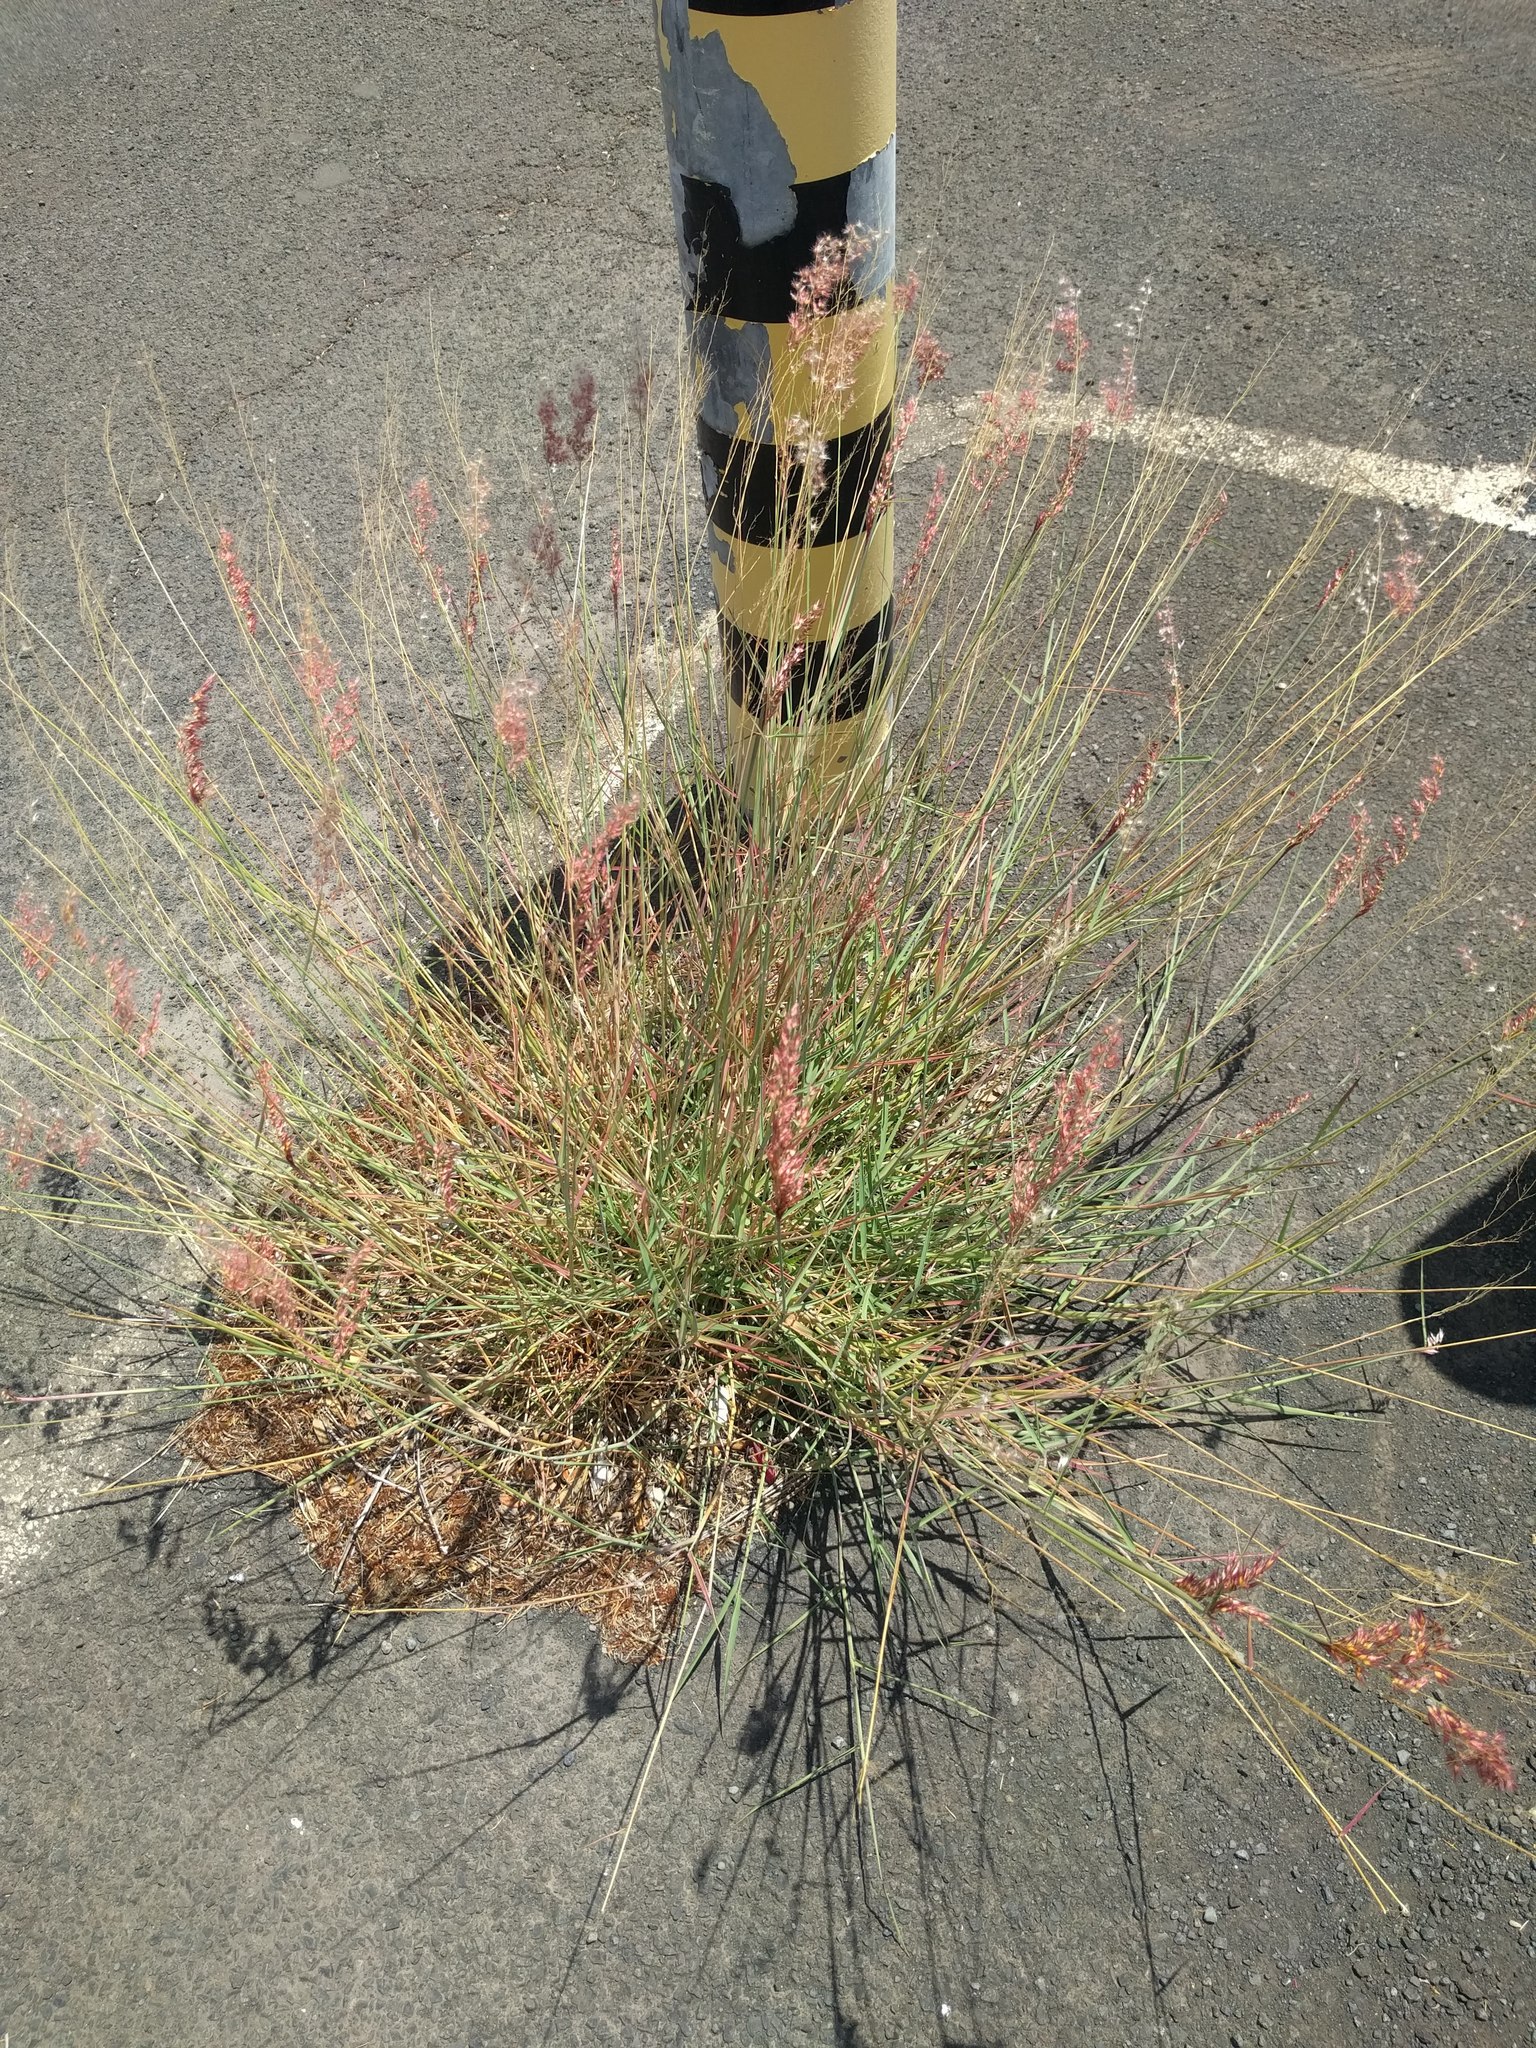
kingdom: Plantae
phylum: Tracheophyta
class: Liliopsida
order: Poales
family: Poaceae
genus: Melinis
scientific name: Melinis repens
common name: Rose natal grass
